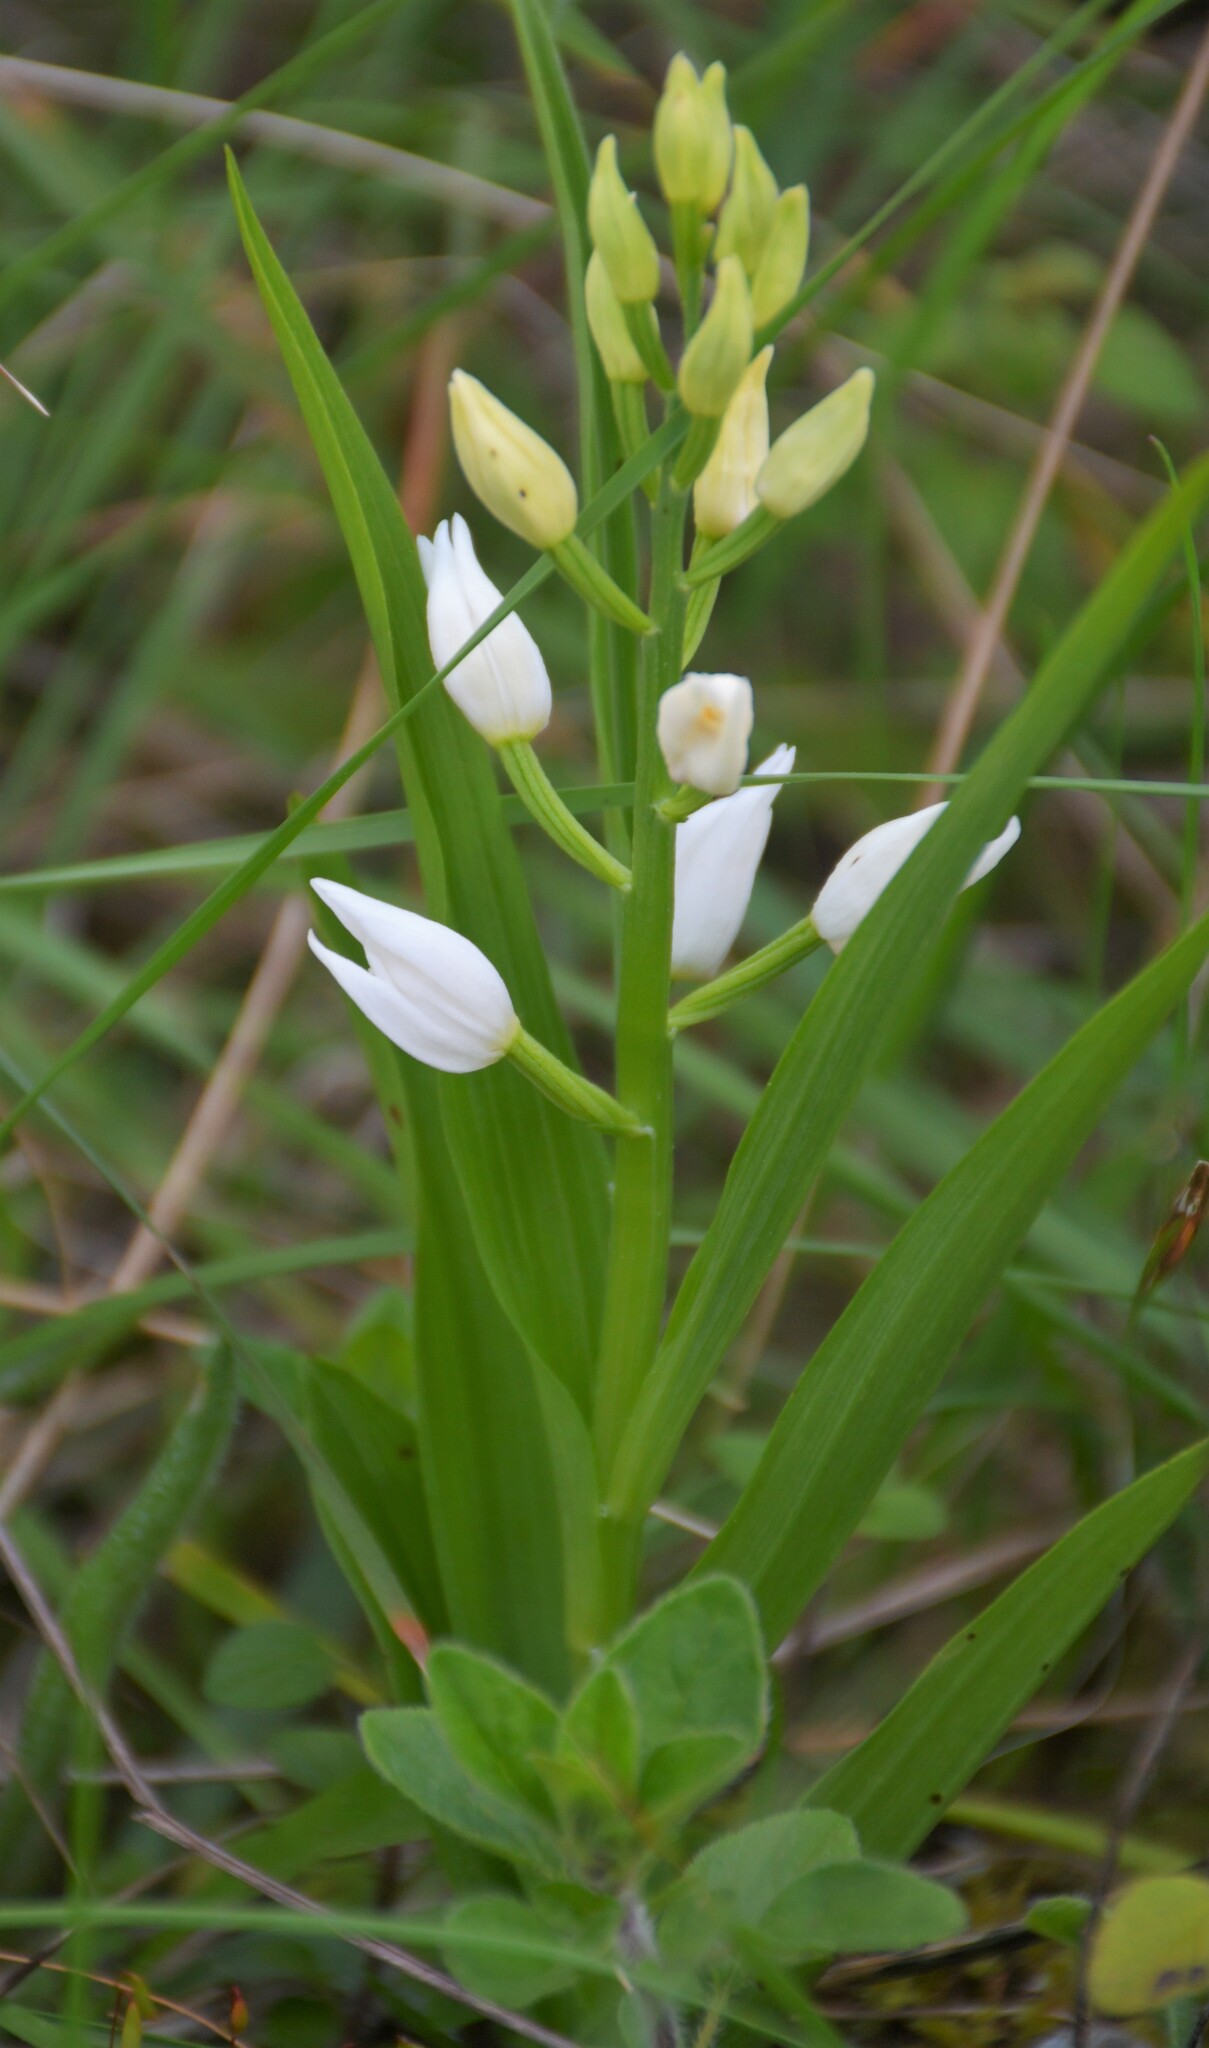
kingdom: Plantae
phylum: Tracheophyta
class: Liliopsida
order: Asparagales
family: Orchidaceae
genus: Cephalanthera
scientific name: Cephalanthera longifolia
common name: Narrow-leaved helleborine
